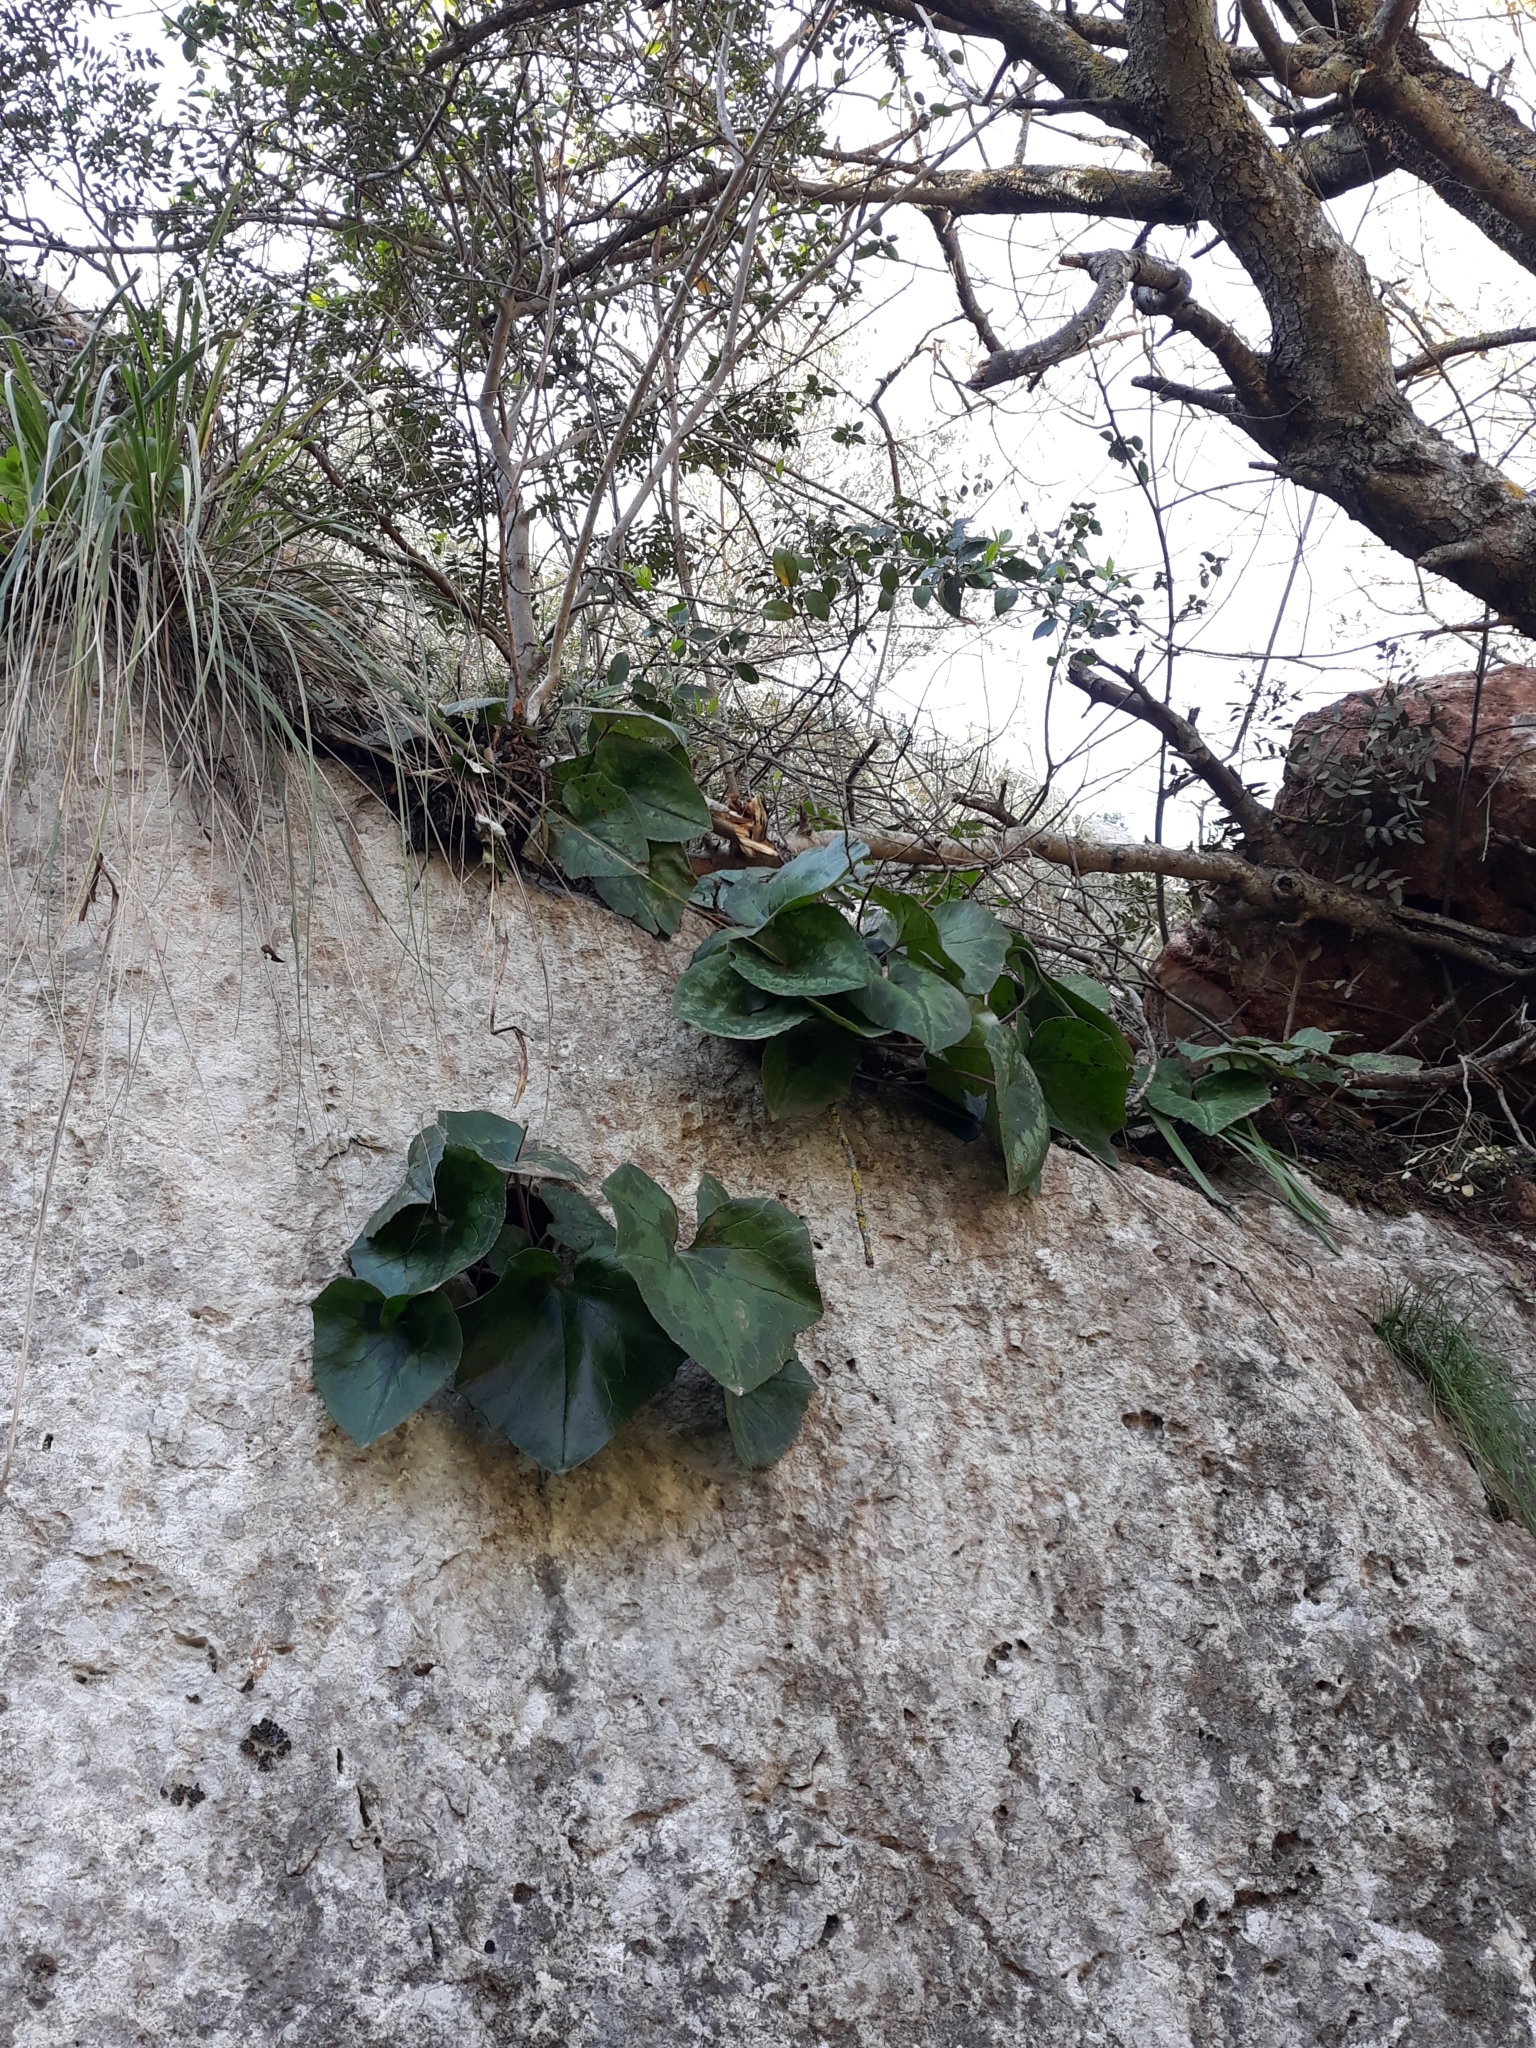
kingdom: Plantae
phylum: Tracheophyta
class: Magnoliopsida
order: Ericales
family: Primulaceae
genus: Cyclamen
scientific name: Cyclamen africanum
